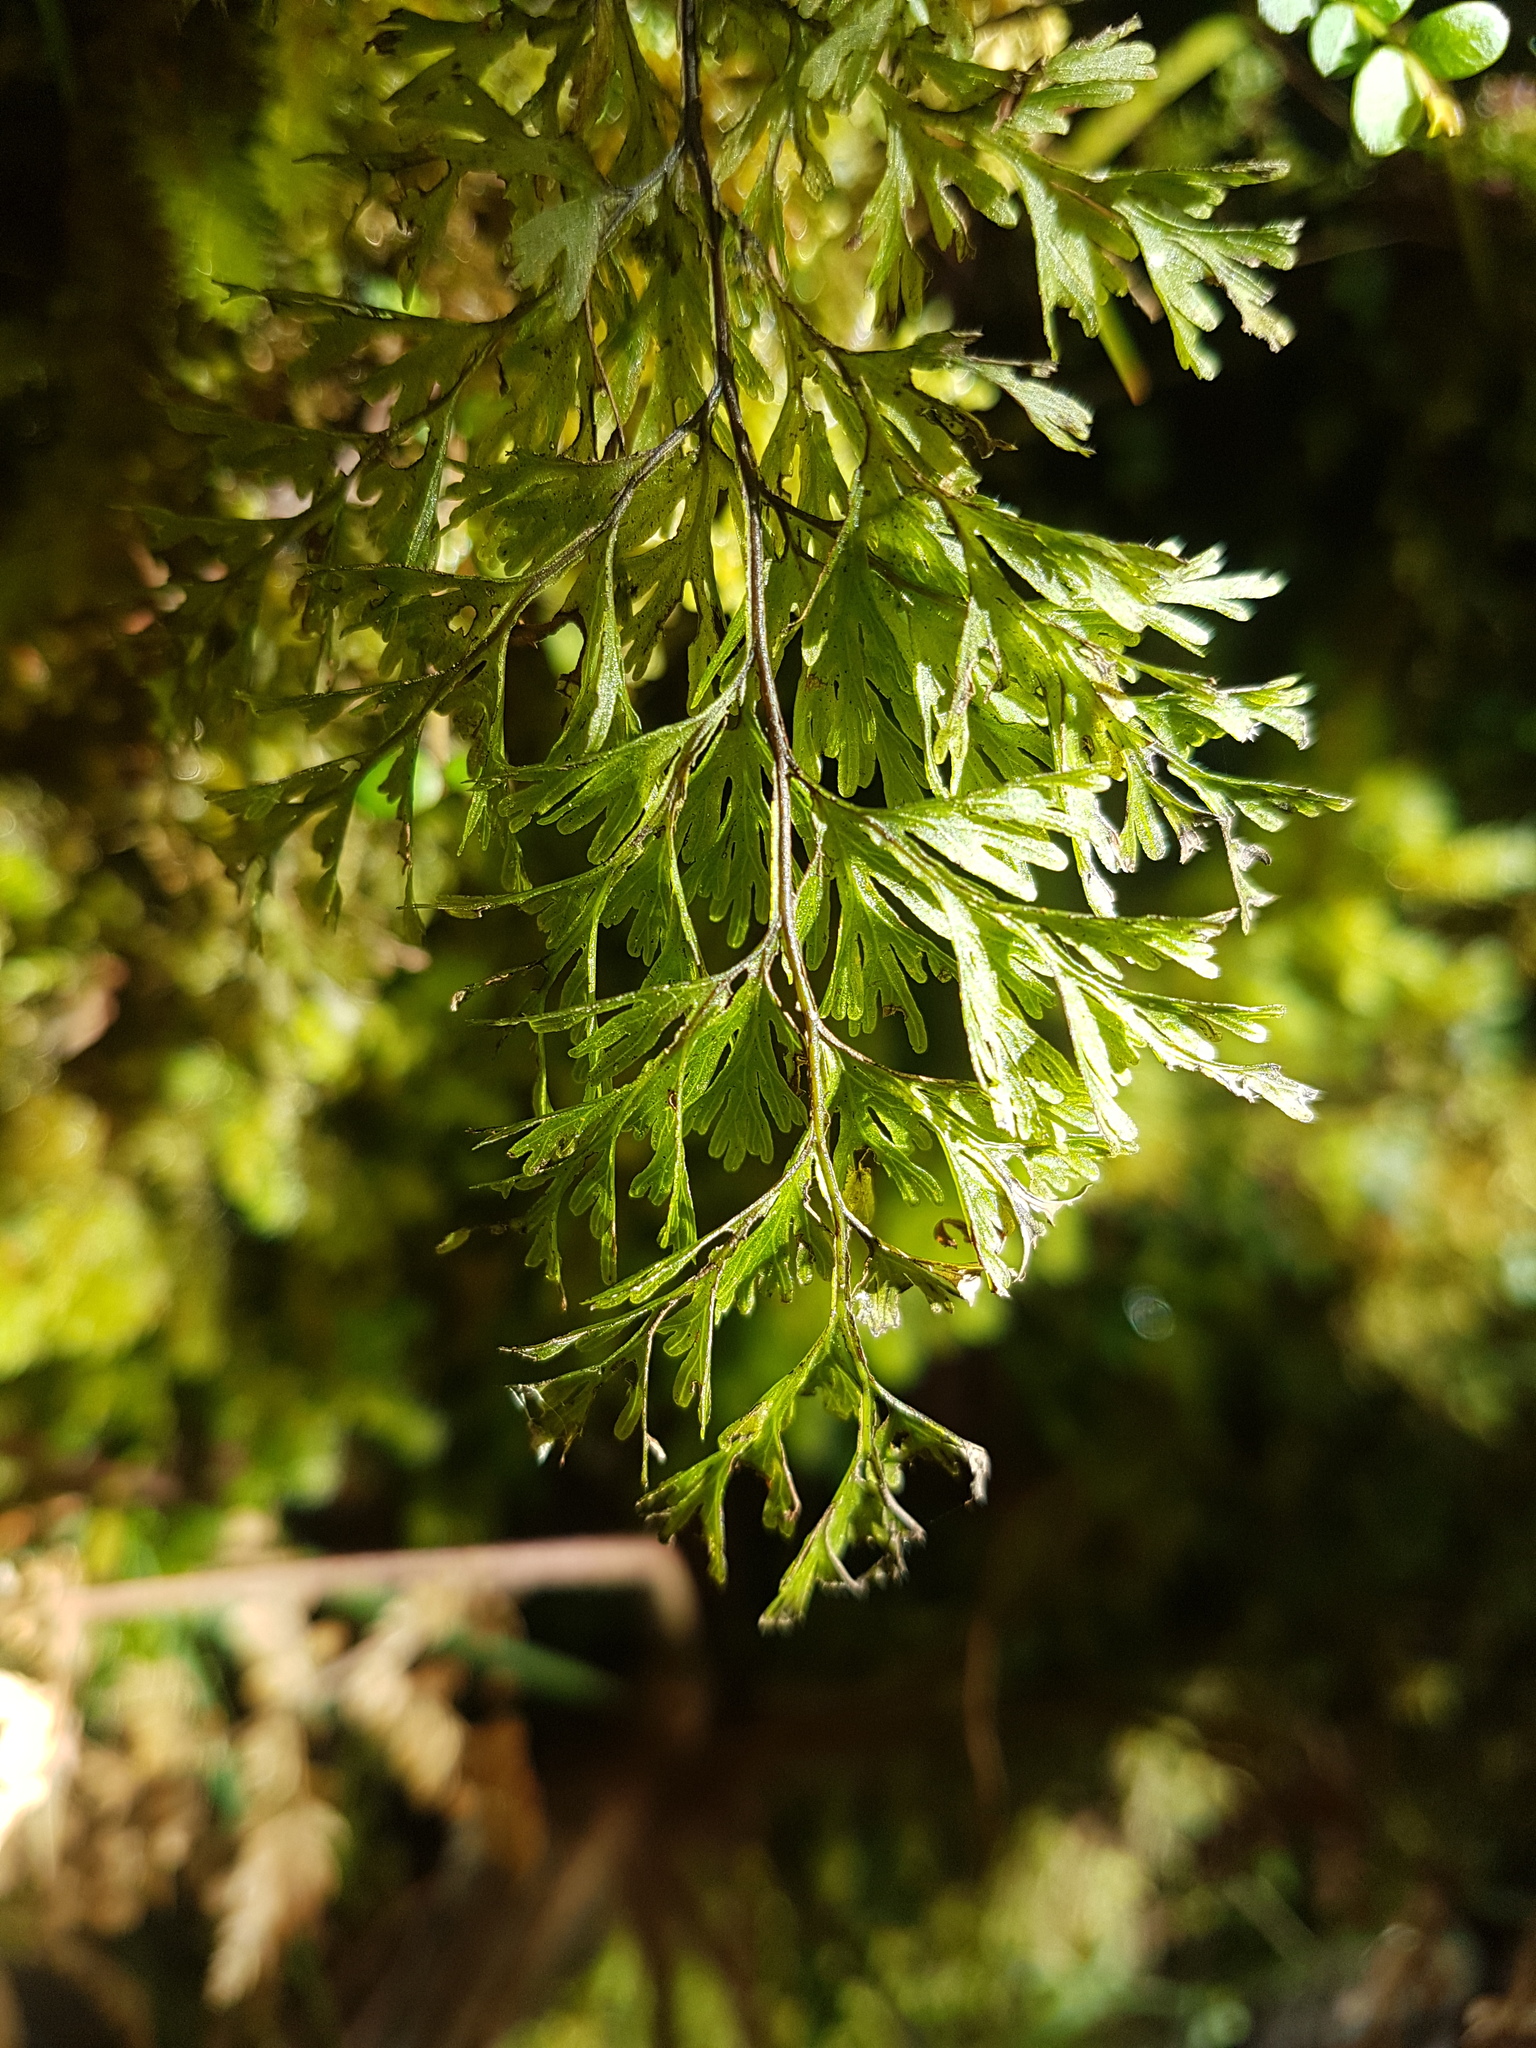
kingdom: Plantae
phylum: Tracheophyta
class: Polypodiopsida
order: Hymenophyllales
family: Hymenophyllaceae
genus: Hymenophyllum
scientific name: Hymenophyllum demissum
